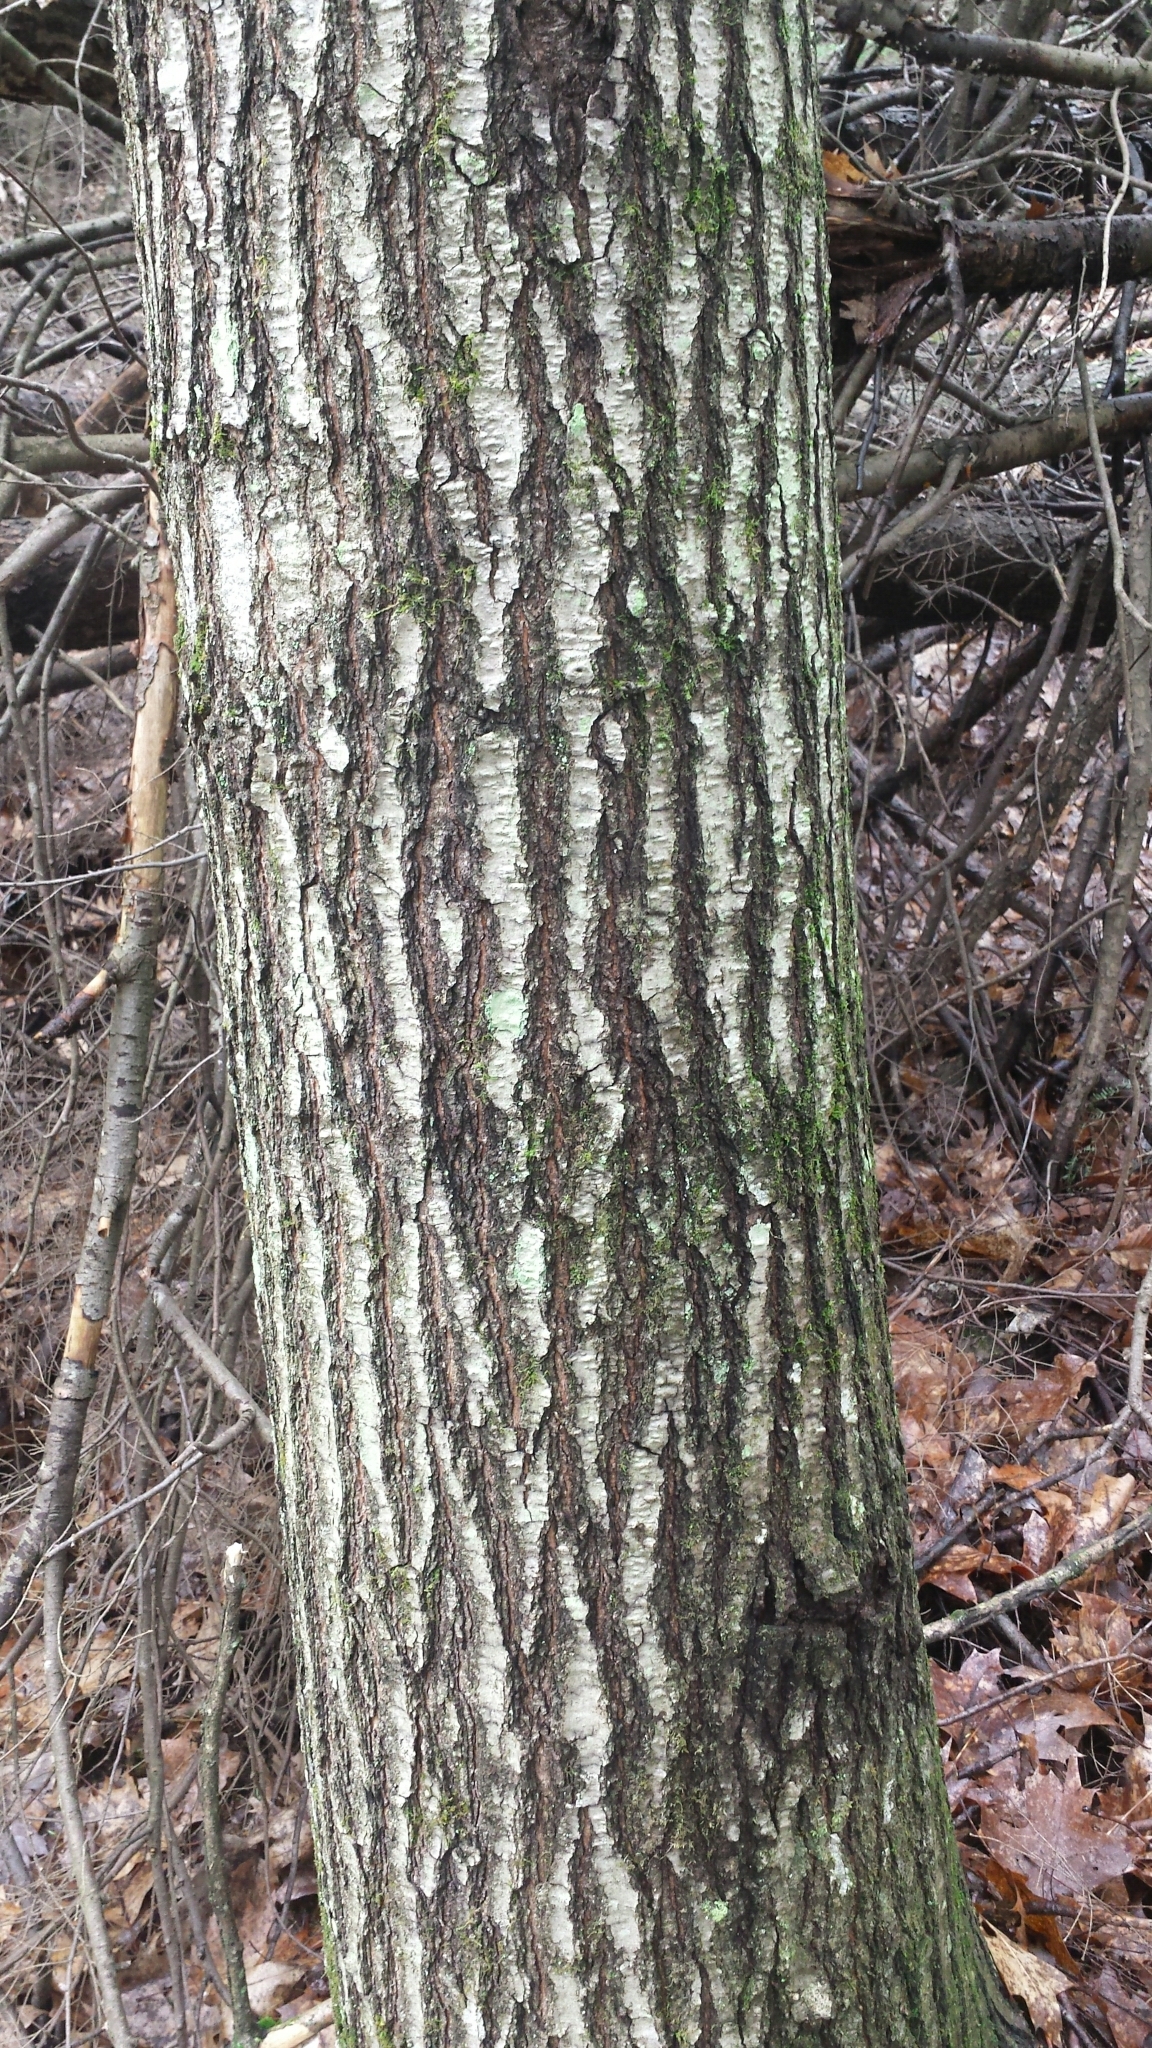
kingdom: Plantae
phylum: Tracheophyta
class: Magnoliopsida
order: Fagales
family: Fagaceae
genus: Quercus
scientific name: Quercus rubra
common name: Red oak
